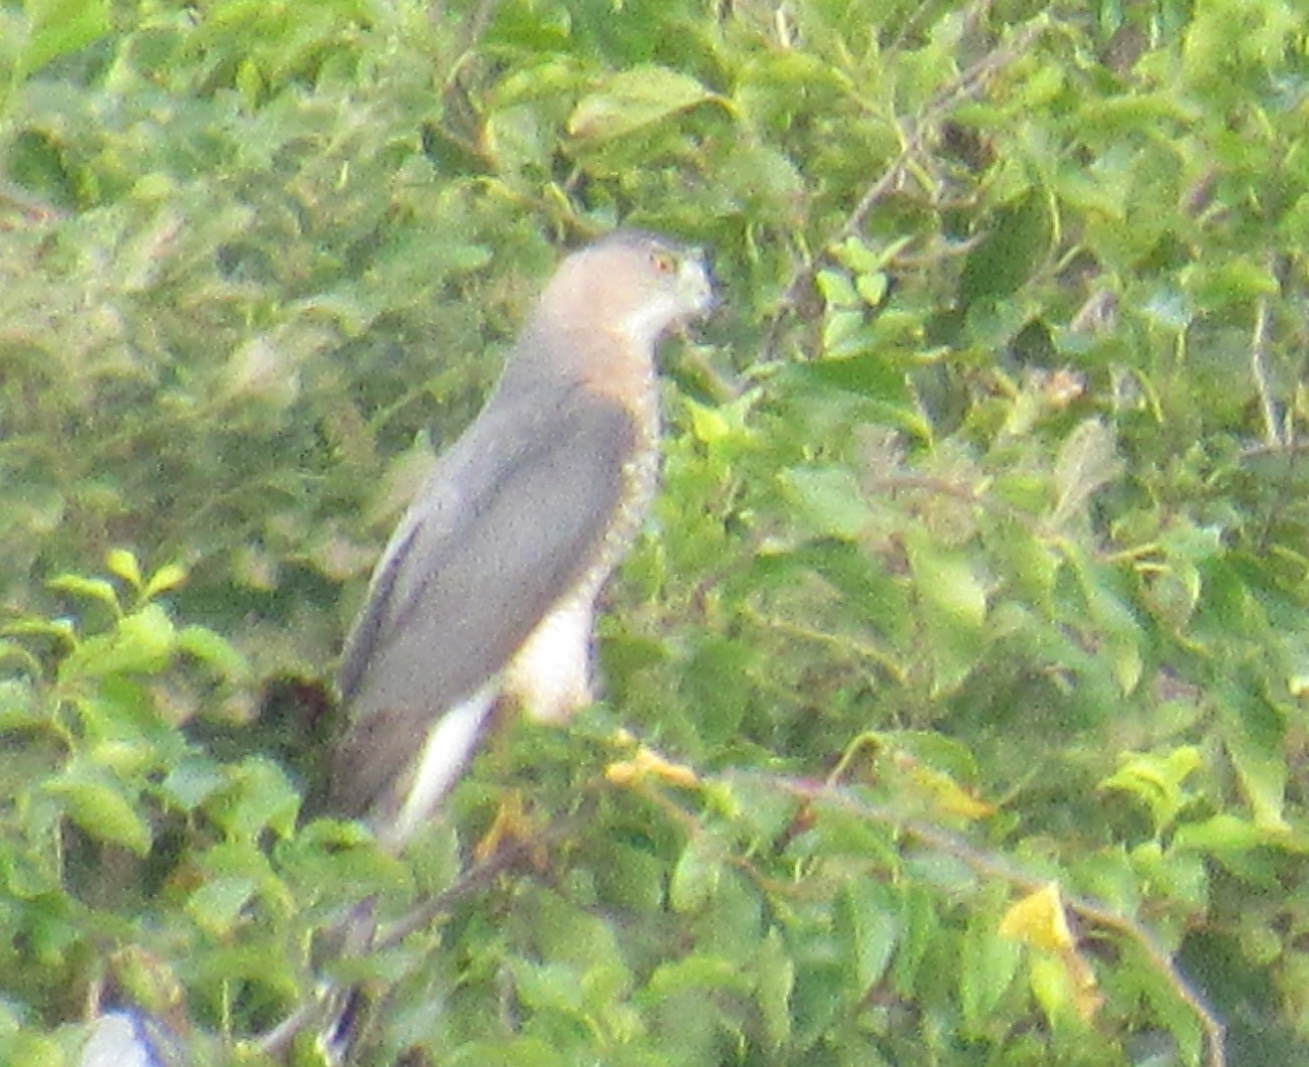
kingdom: Animalia
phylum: Chordata
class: Aves
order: Accipitriformes
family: Accipitridae
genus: Accipiter
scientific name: Accipiter cooperii
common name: Cooper's hawk
